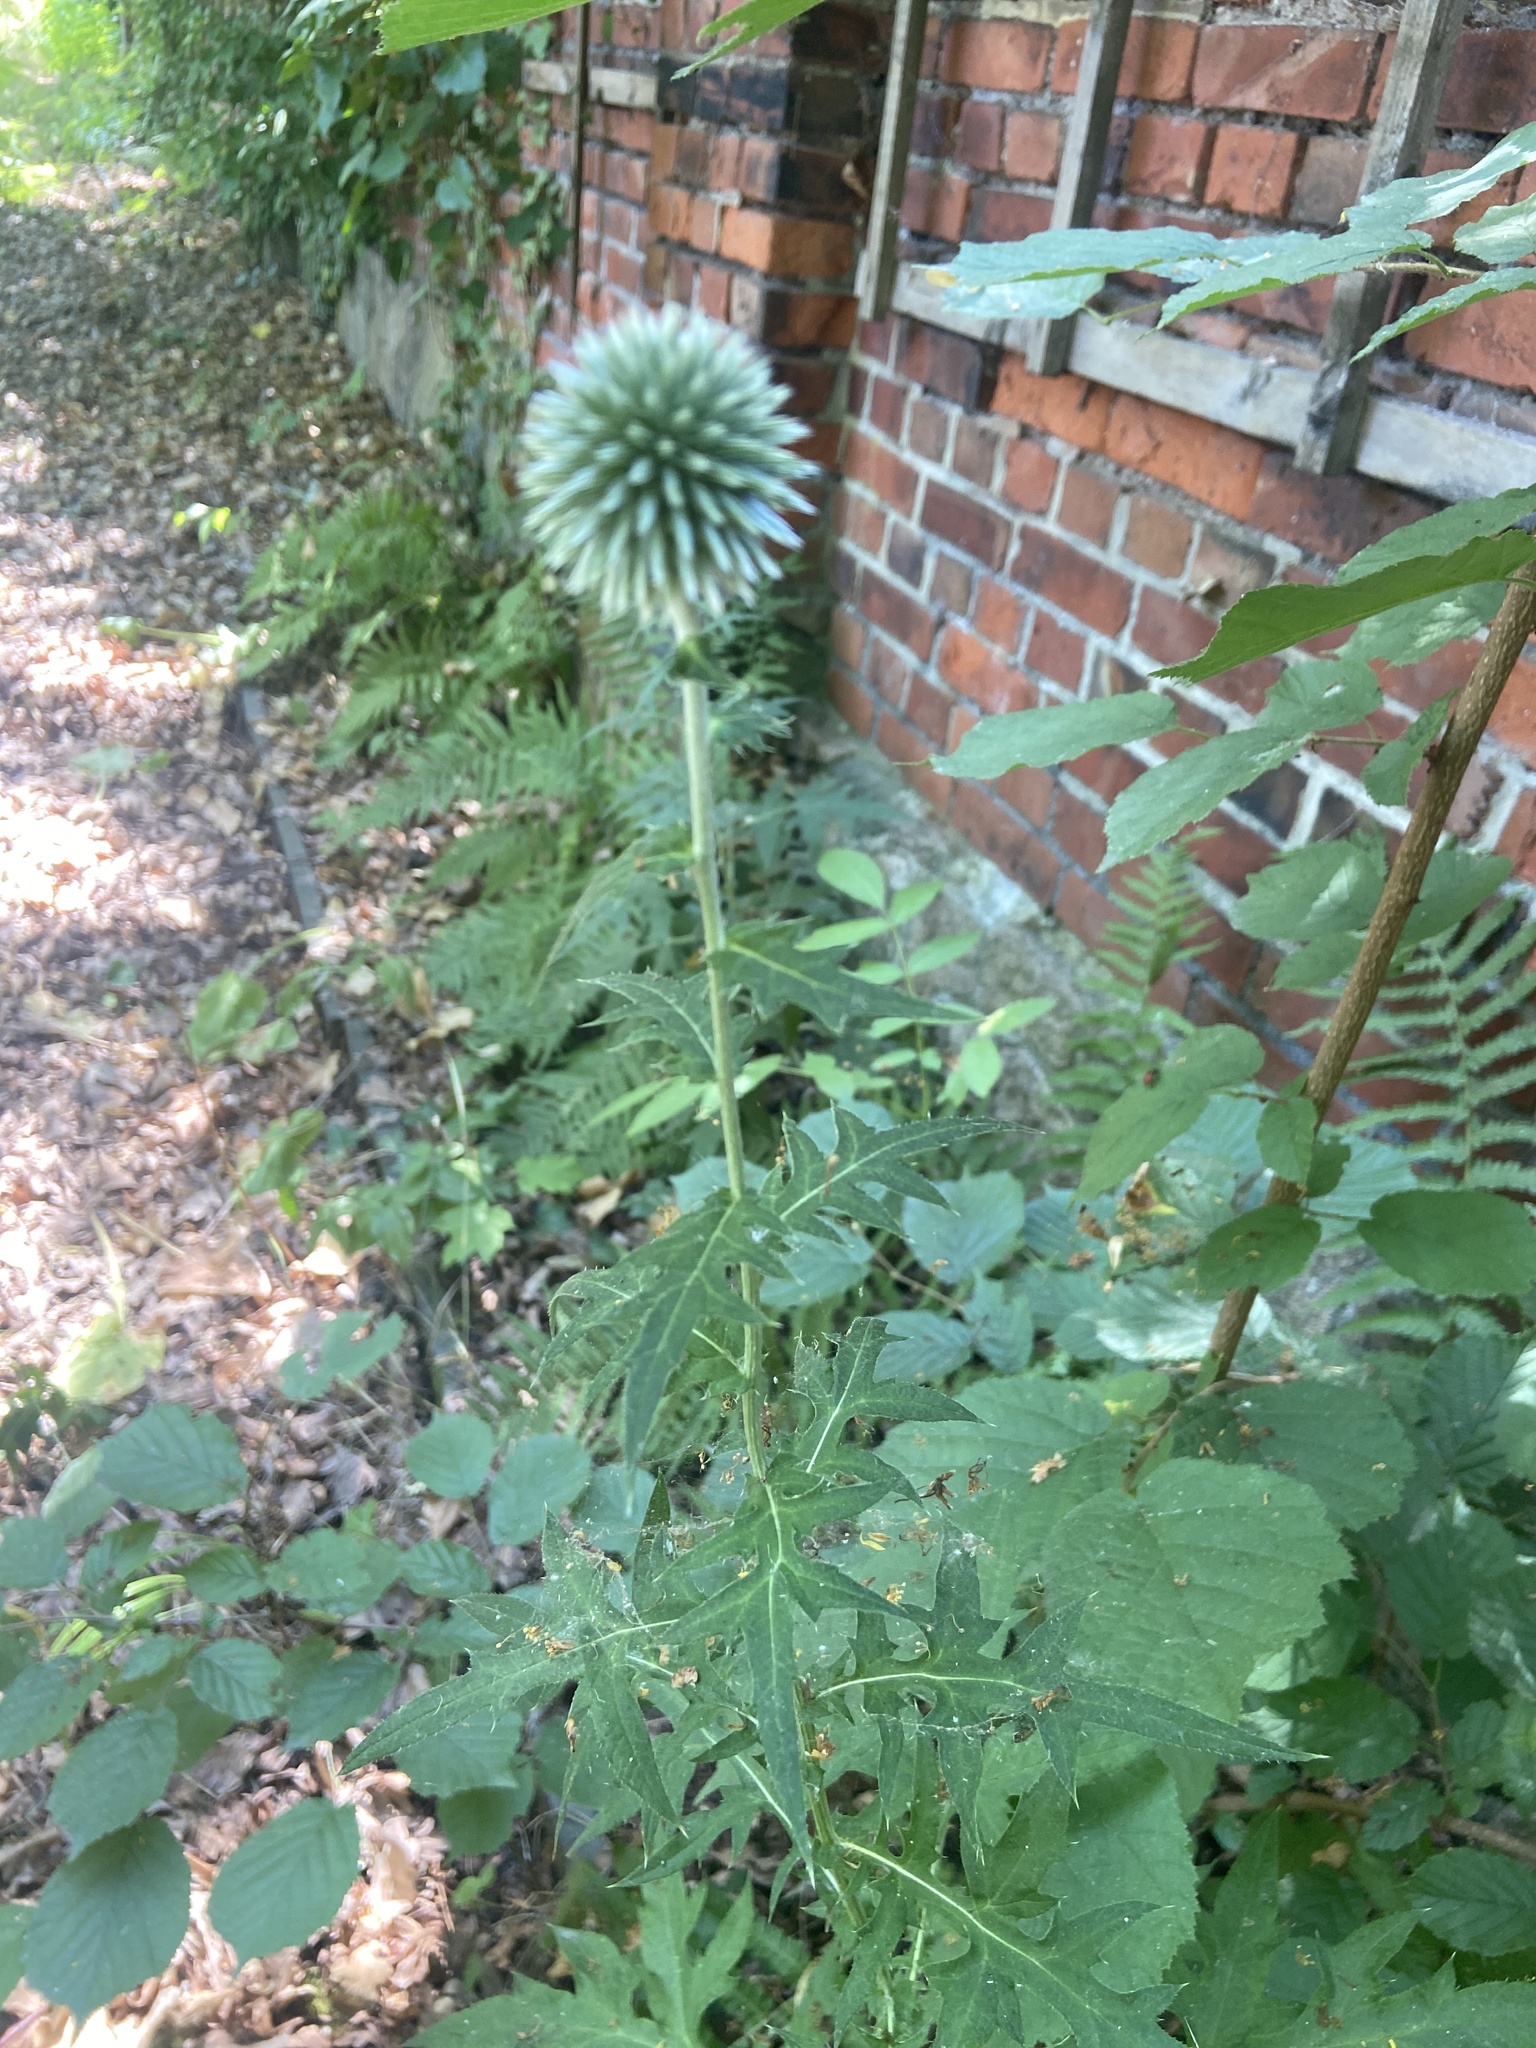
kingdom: Plantae
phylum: Tracheophyta
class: Magnoliopsida
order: Asterales
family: Asteraceae
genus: Echinops
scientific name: Echinops bannaticus
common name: Blue globe-thistle
